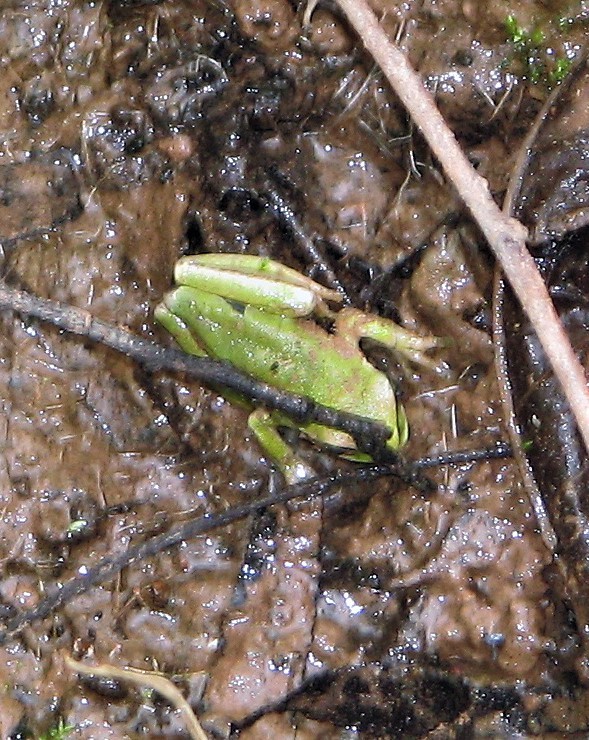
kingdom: Animalia
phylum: Chordata
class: Amphibia
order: Anura
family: Hylidae
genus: Boana
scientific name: Boana riojana
